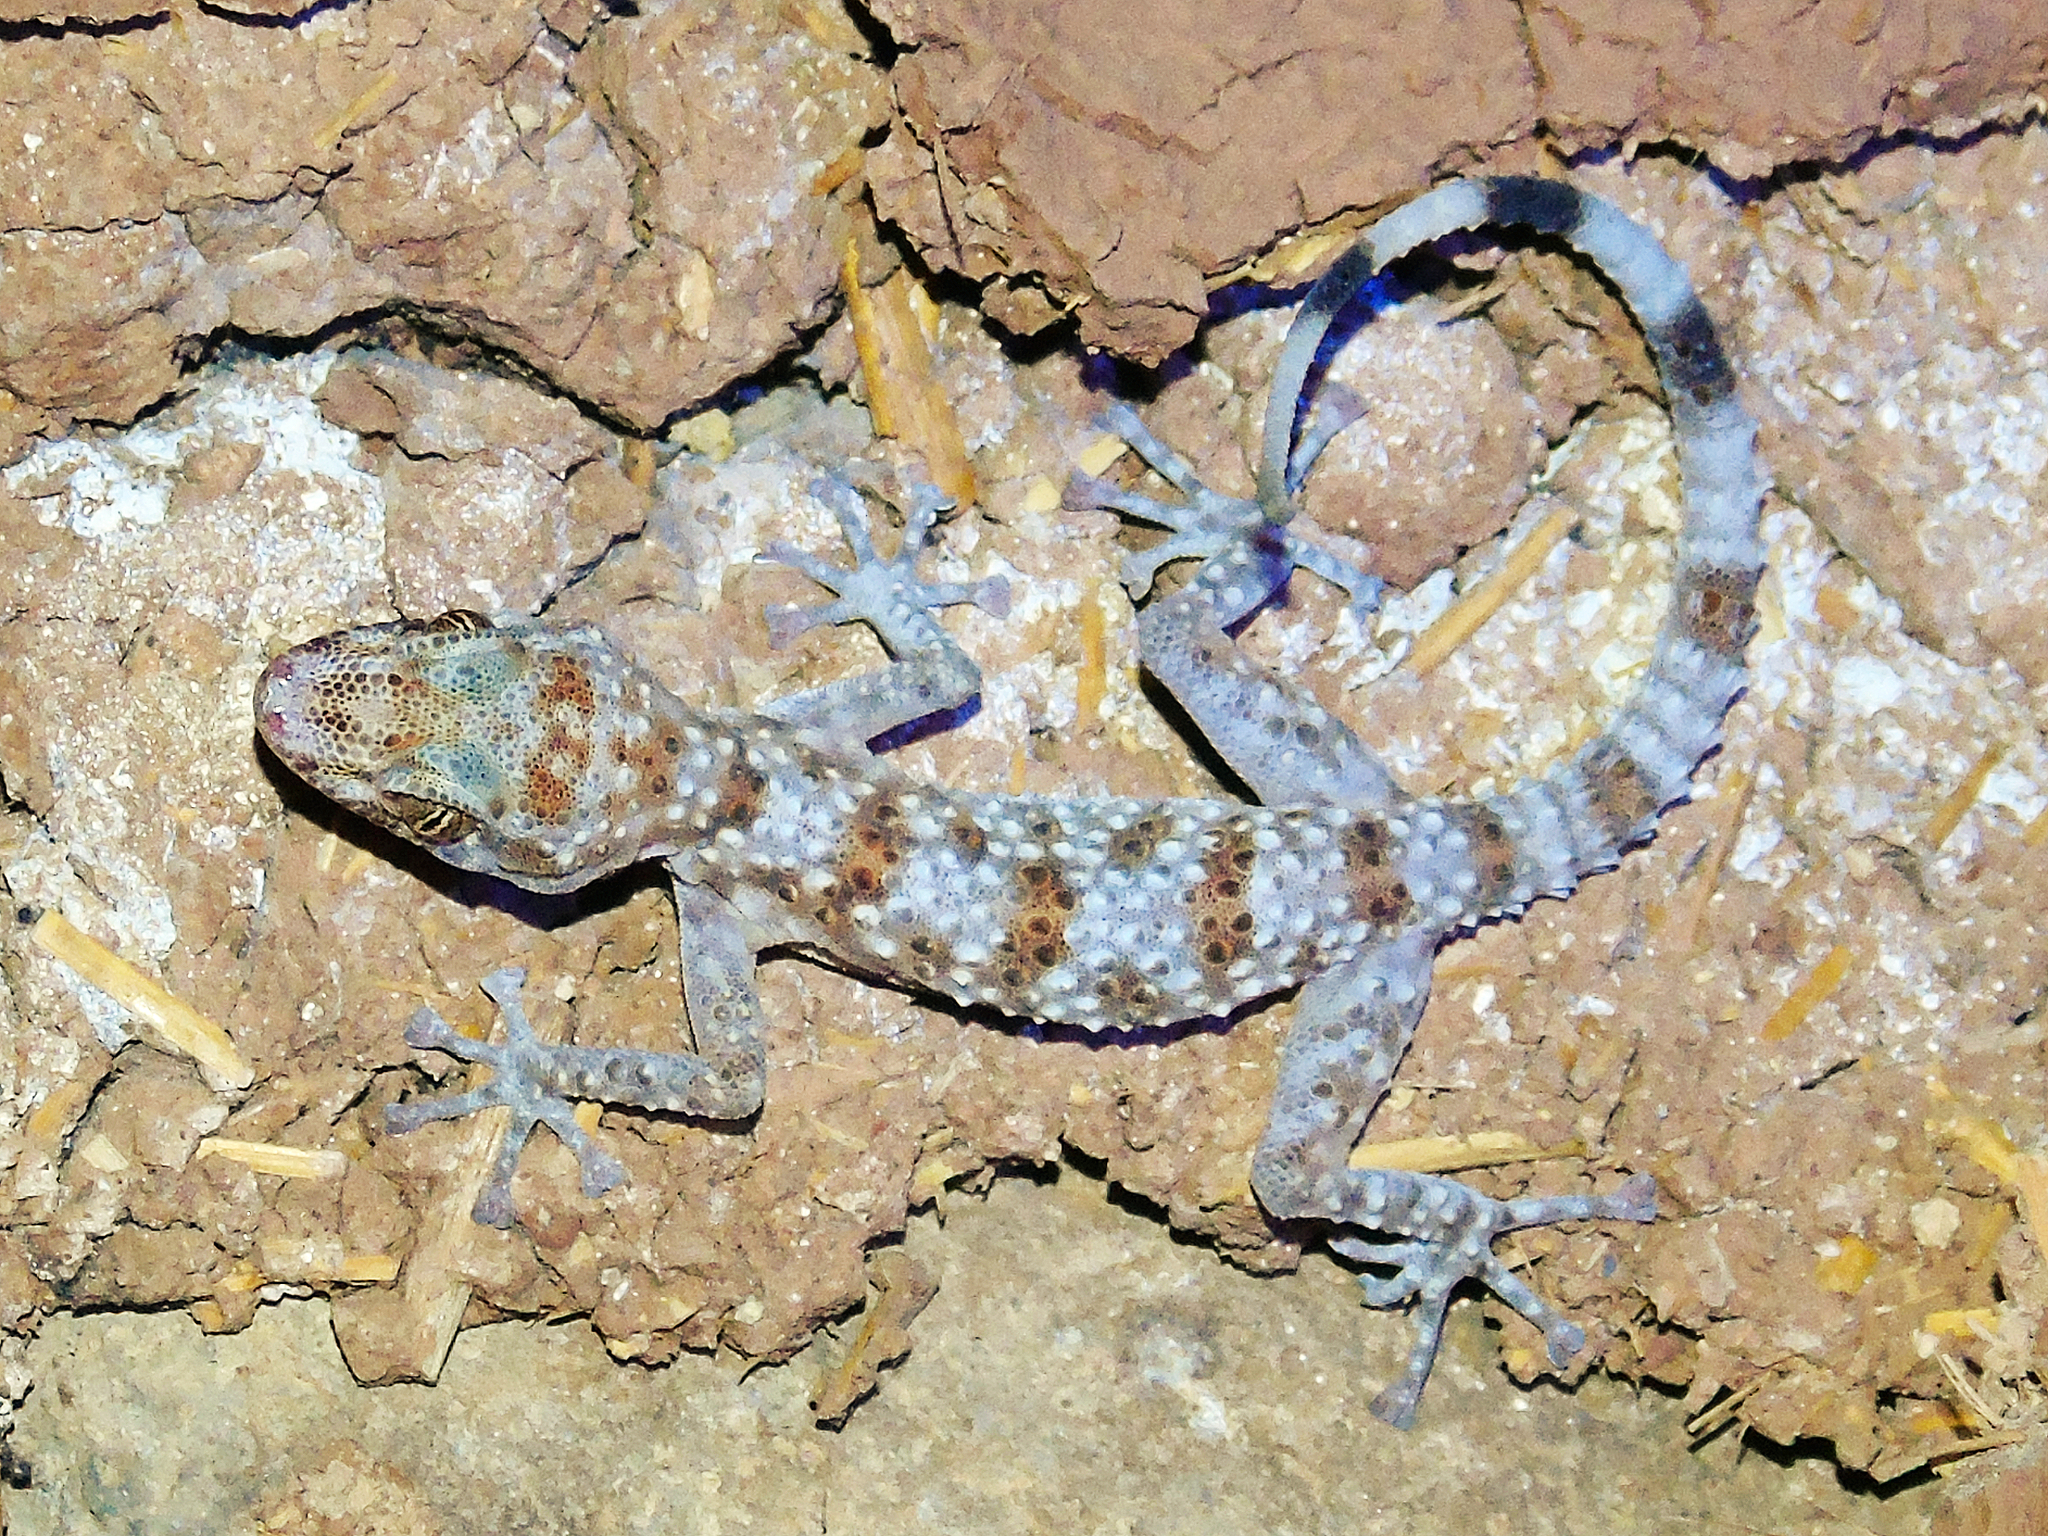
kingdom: Animalia
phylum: Chordata
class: Squamata
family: Phyllodactylidae
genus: Asaccus
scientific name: Asaccus barani
